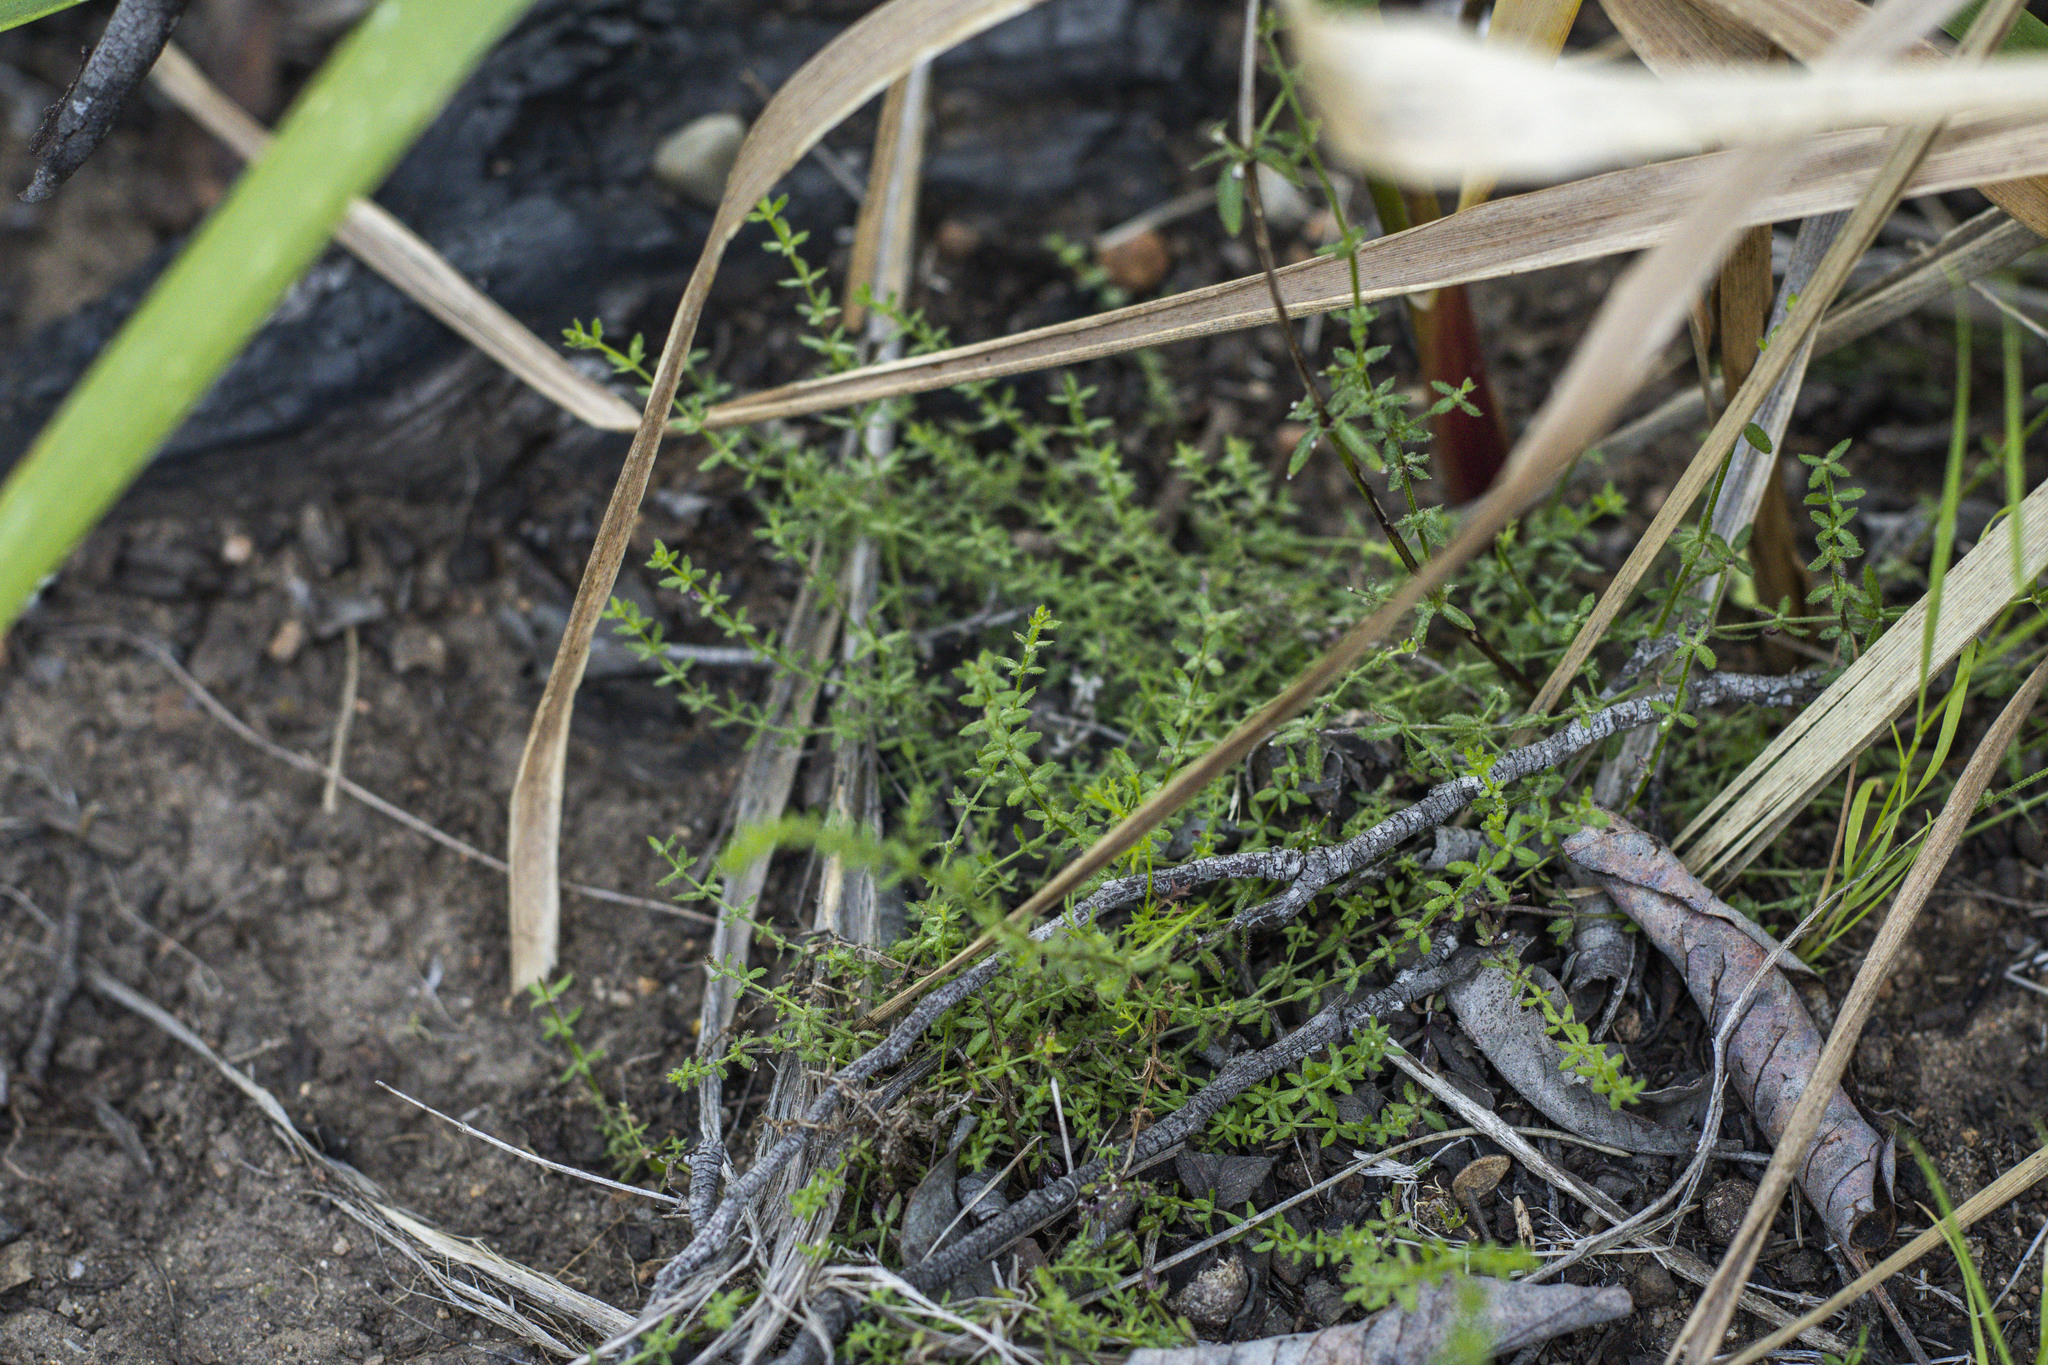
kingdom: Plantae
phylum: Tracheophyta
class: Magnoliopsida
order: Gentianales
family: Rubiaceae
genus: Galium
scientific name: Galium nuttallii
